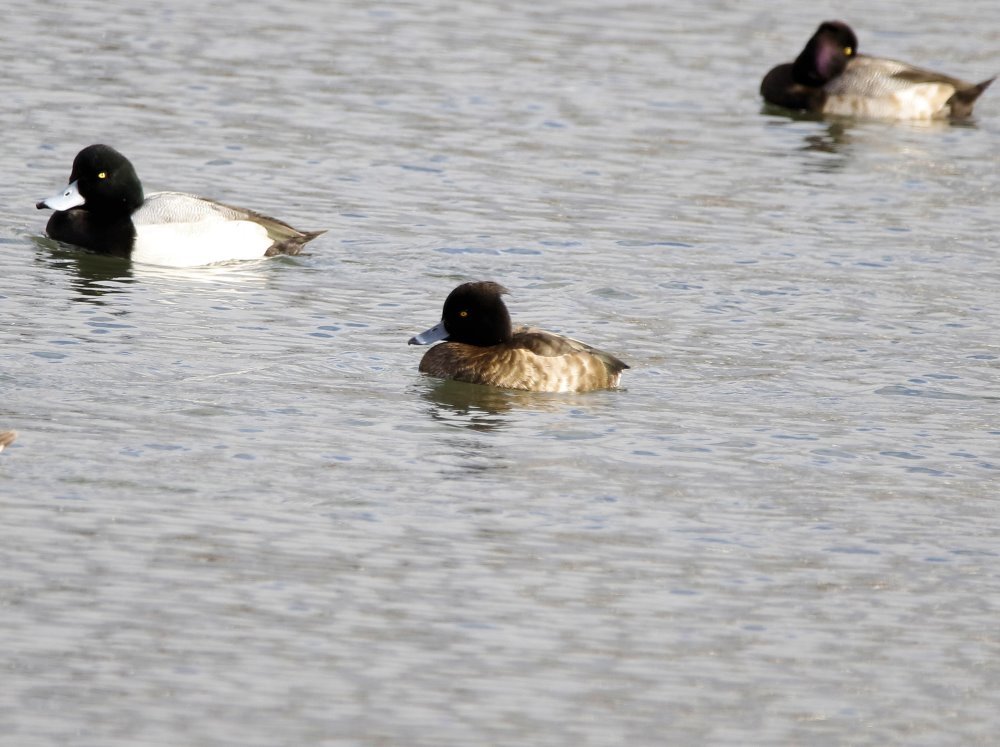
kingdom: Animalia
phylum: Chordata
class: Aves
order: Anseriformes
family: Anatidae
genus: Aythya
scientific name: Aythya fuligula
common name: Tufted duck
